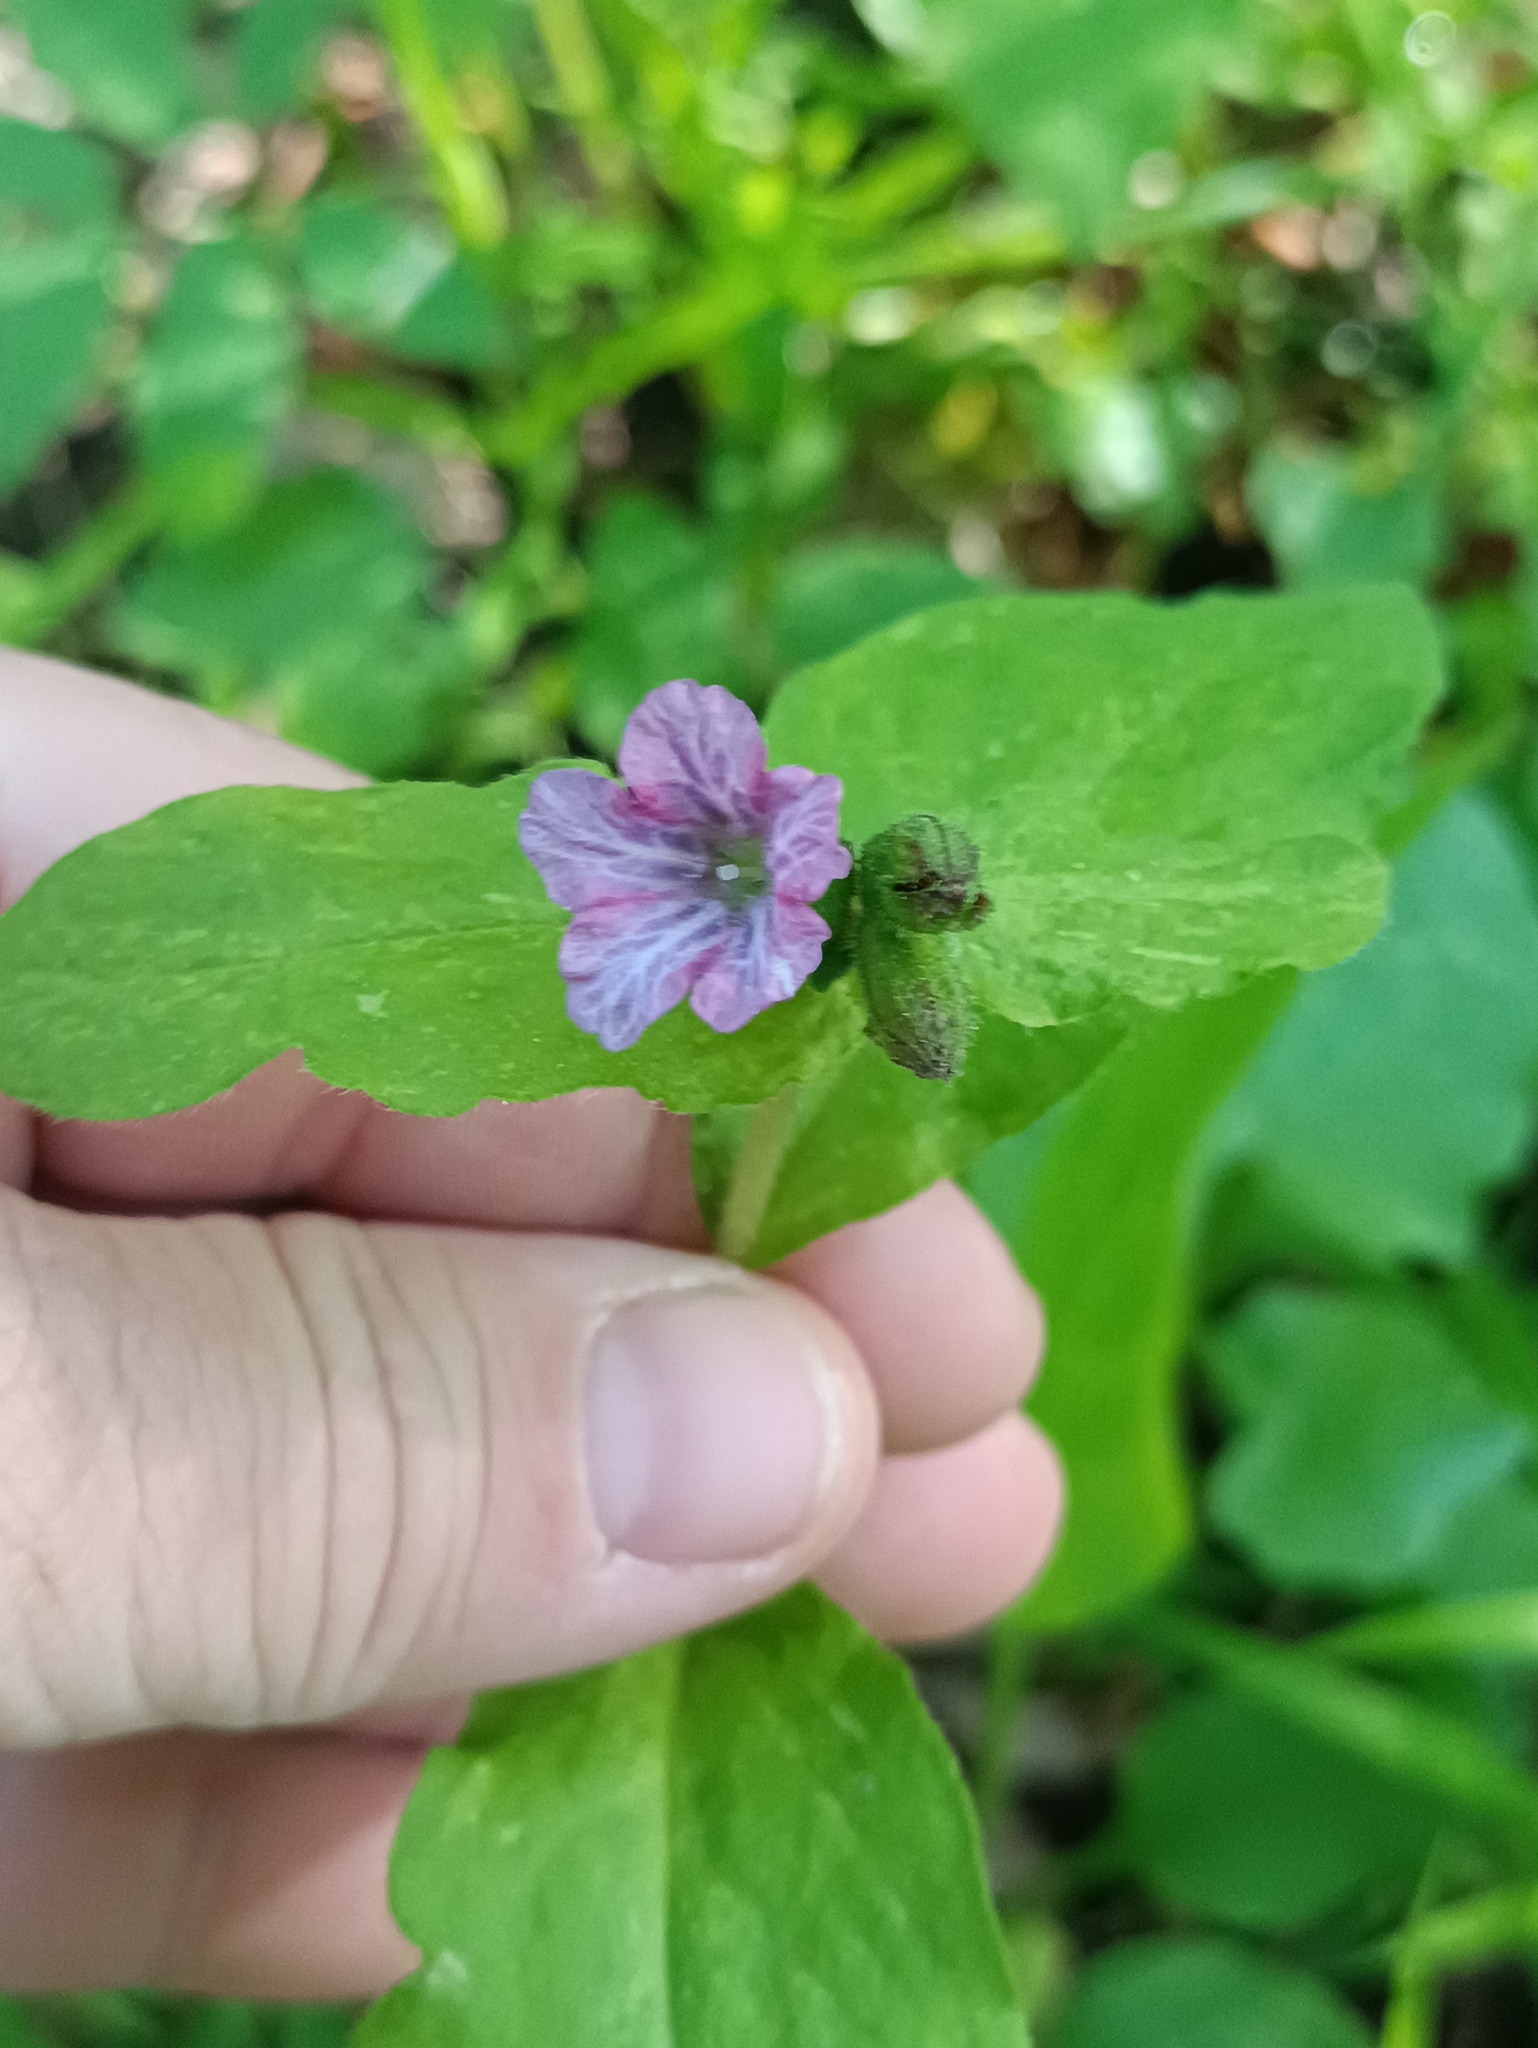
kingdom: Plantae
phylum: Tracheophyta
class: Magnoliopsida
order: Boraginales
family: Boraginaceae
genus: Pulmonaria
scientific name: Pulmonaria obscura
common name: Suffolk lungwort
